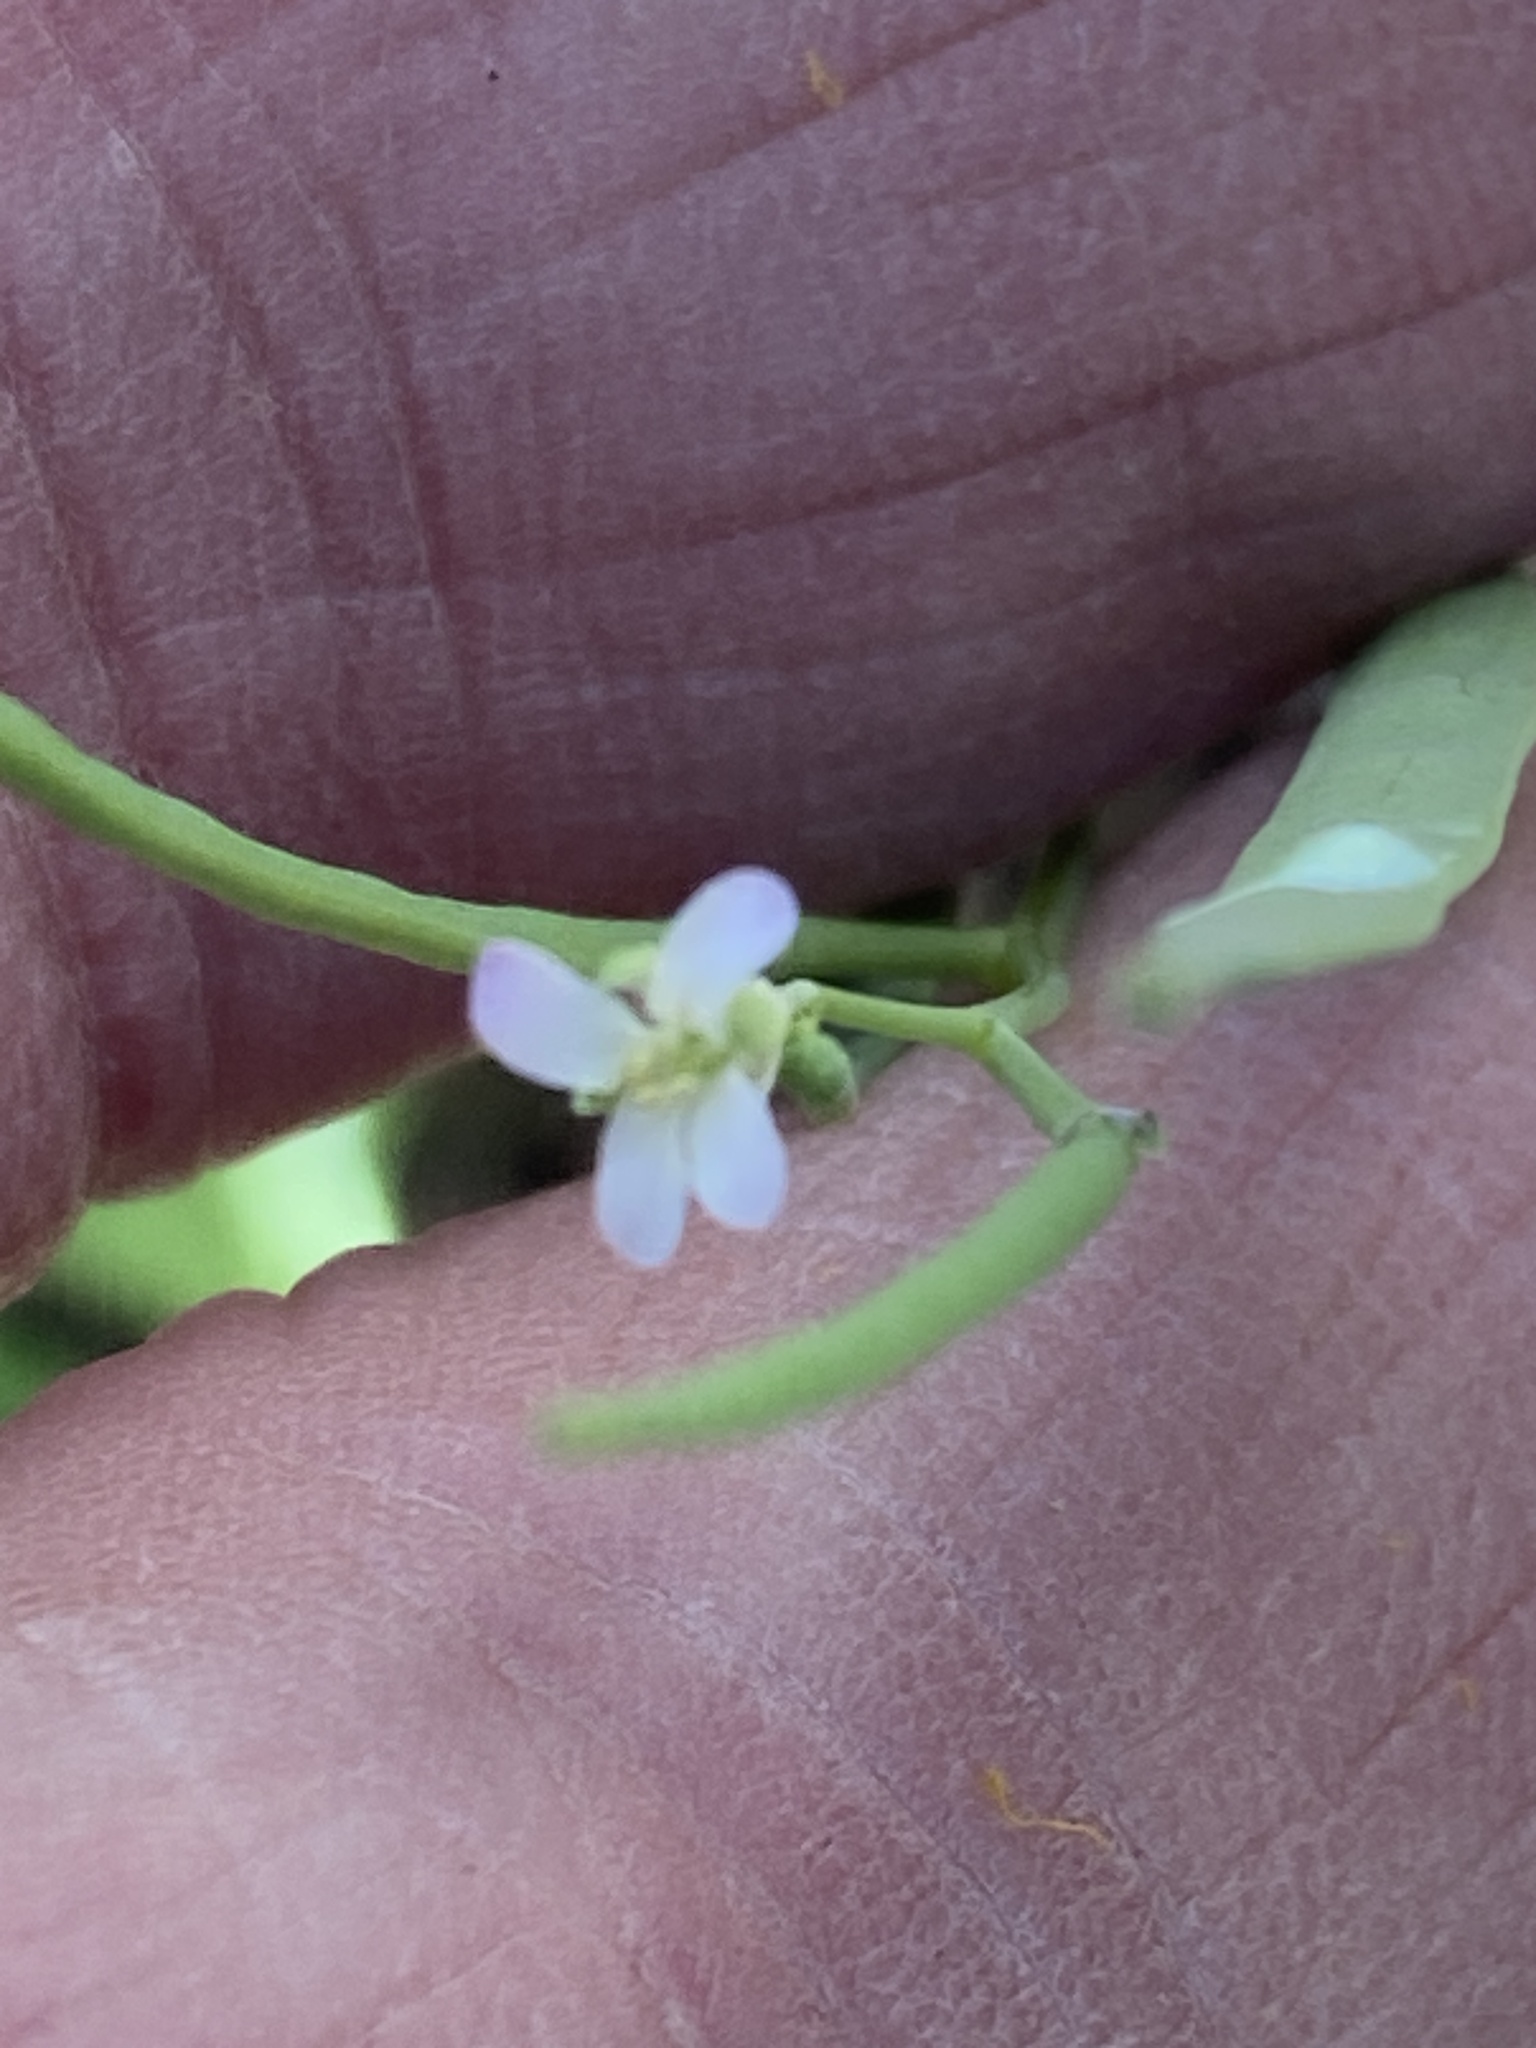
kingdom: Plantae
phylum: Tracheophyta
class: Magnoliopsida
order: Brassicales
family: Brassicaceae
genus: Streptanthus
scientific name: Streptanthus petiolaris
